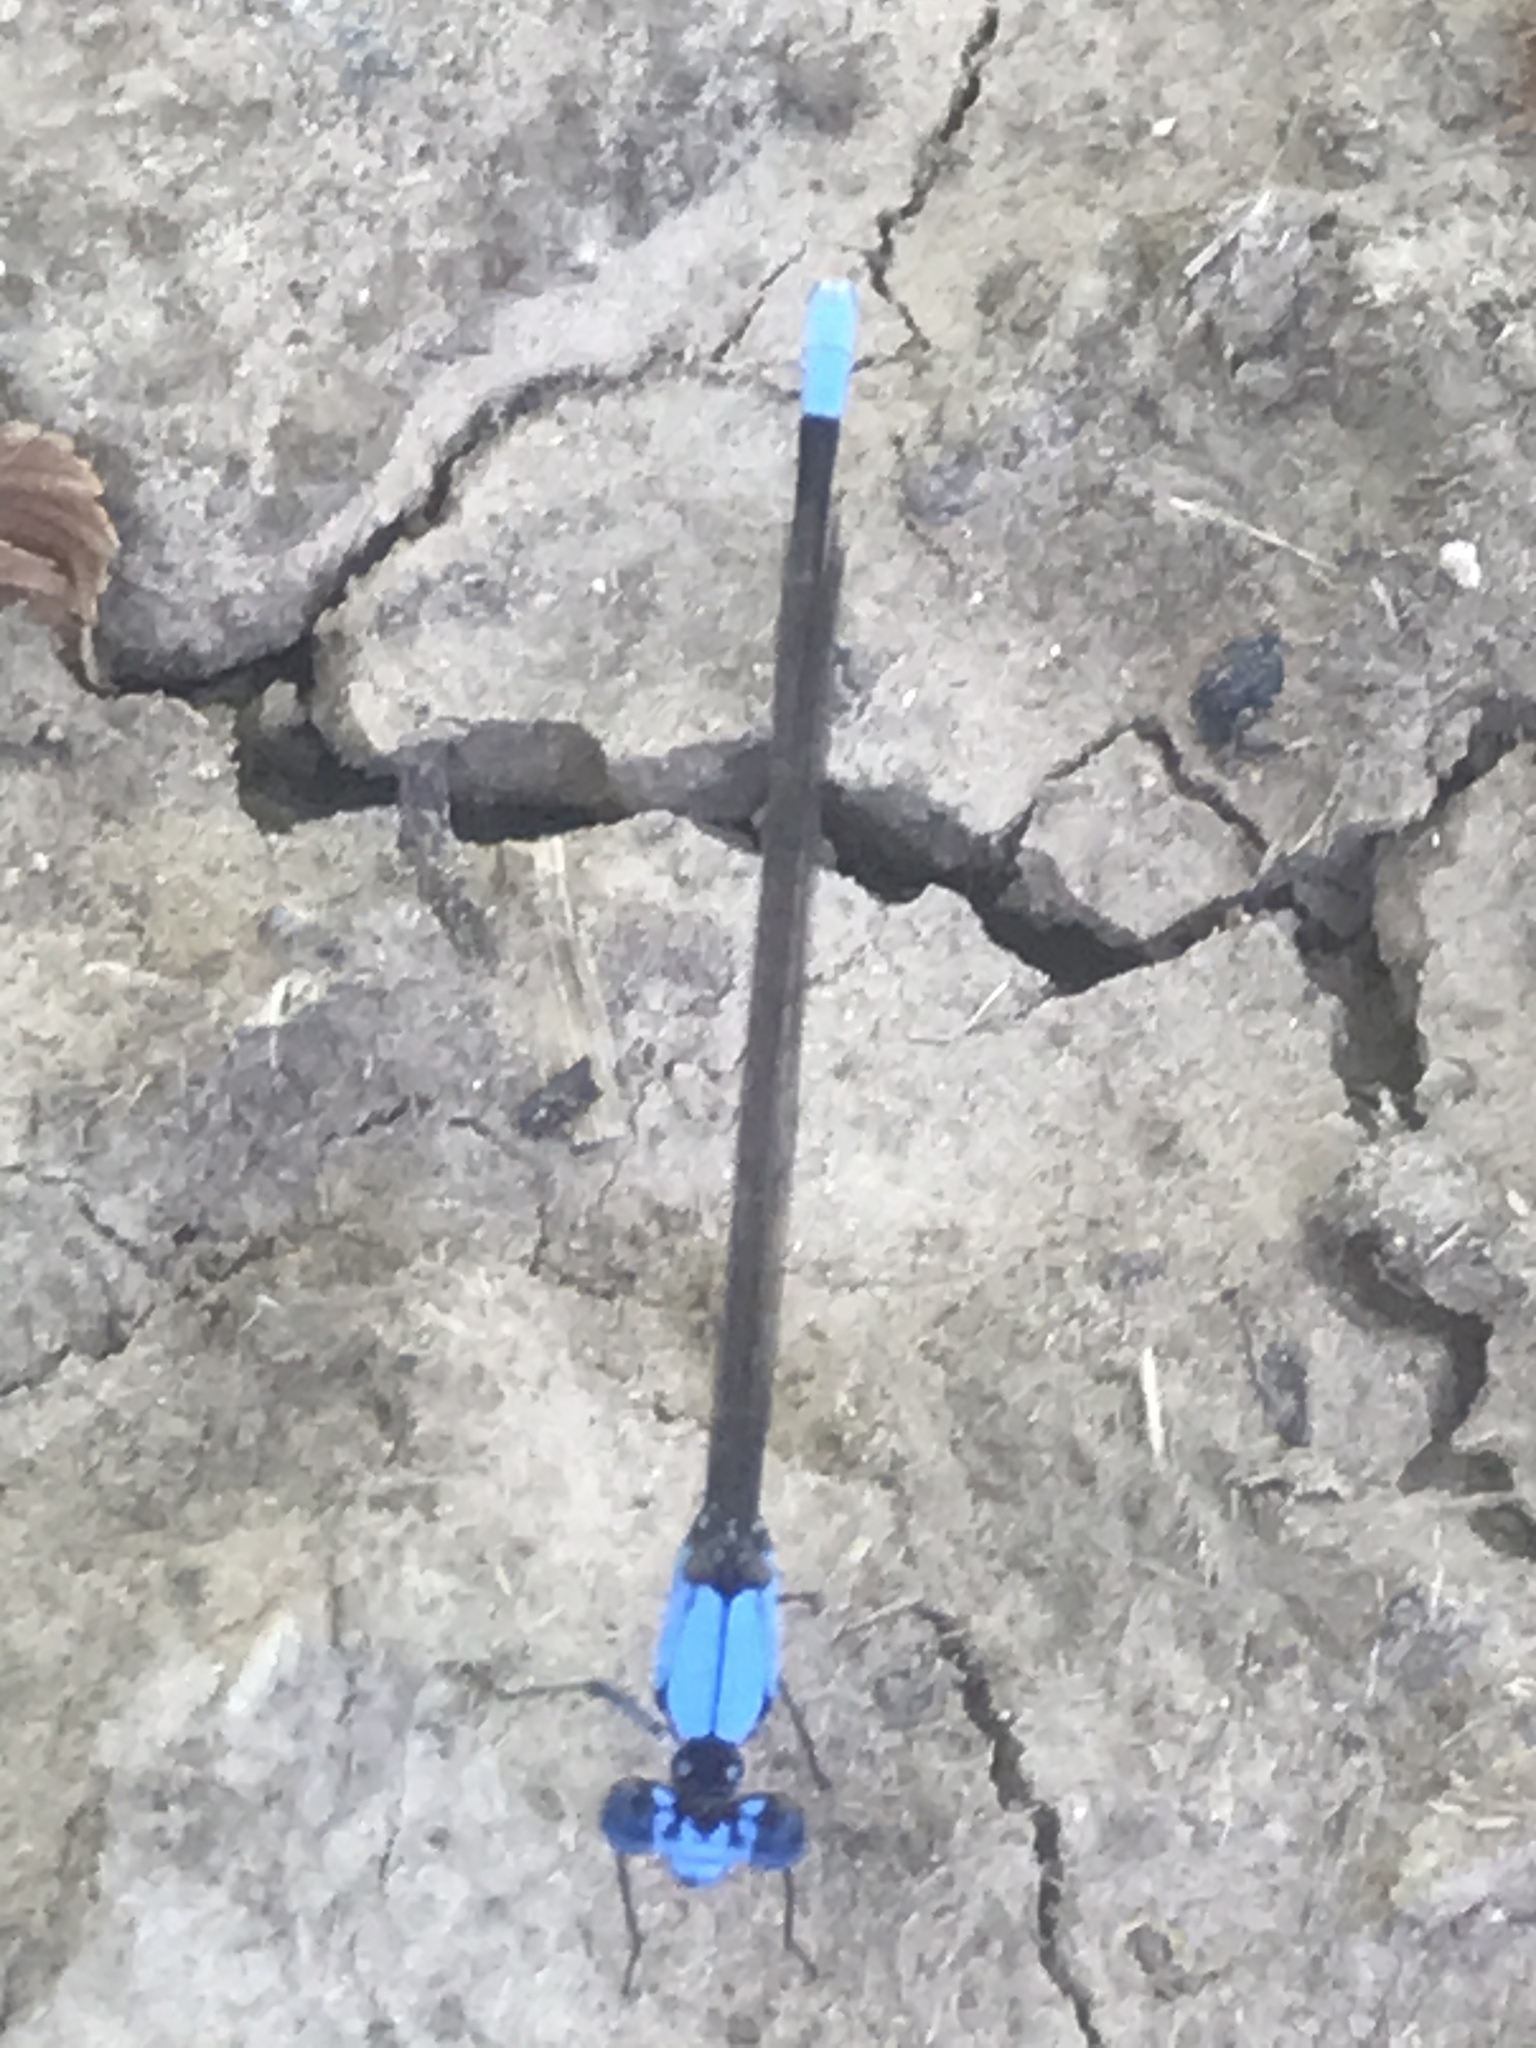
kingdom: Animalia
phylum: Arthropoda
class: Insecta
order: Odonata
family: Coenagrionidae
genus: Argia
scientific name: Argia apicalis
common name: Blue-fronted dancer
